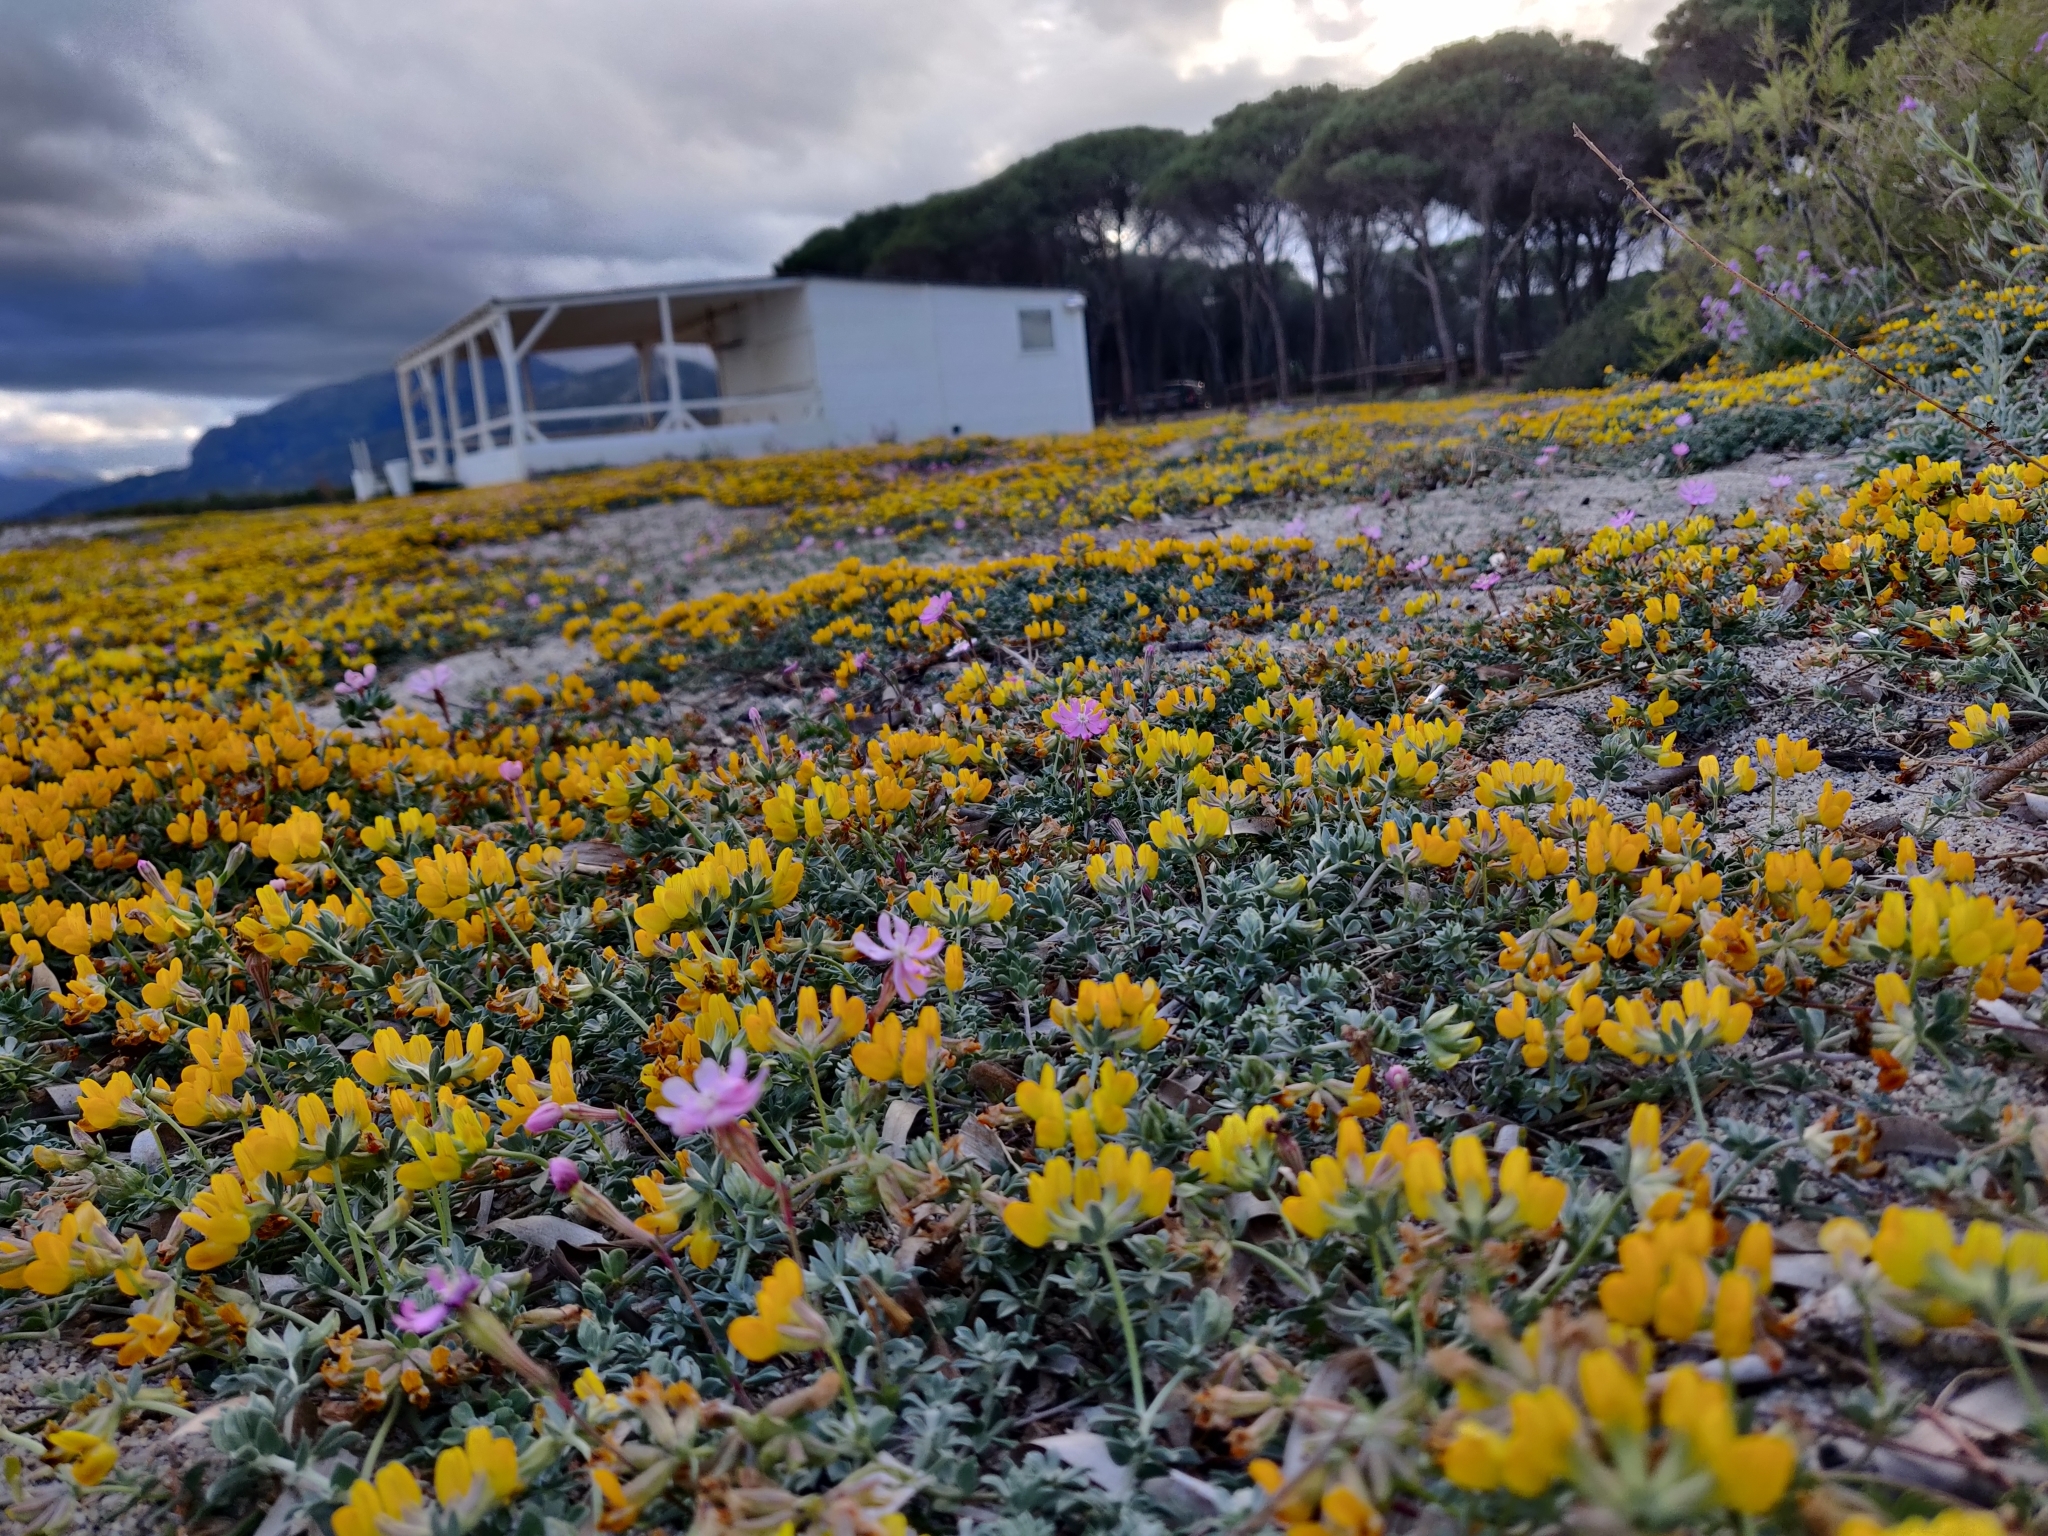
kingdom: Plantae
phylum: Tracheophyta
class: Magnoliopsida
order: Fabales
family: Fabaceae
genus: Lotus
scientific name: Lotus creticus
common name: Cretan bird's-foot trefoil
